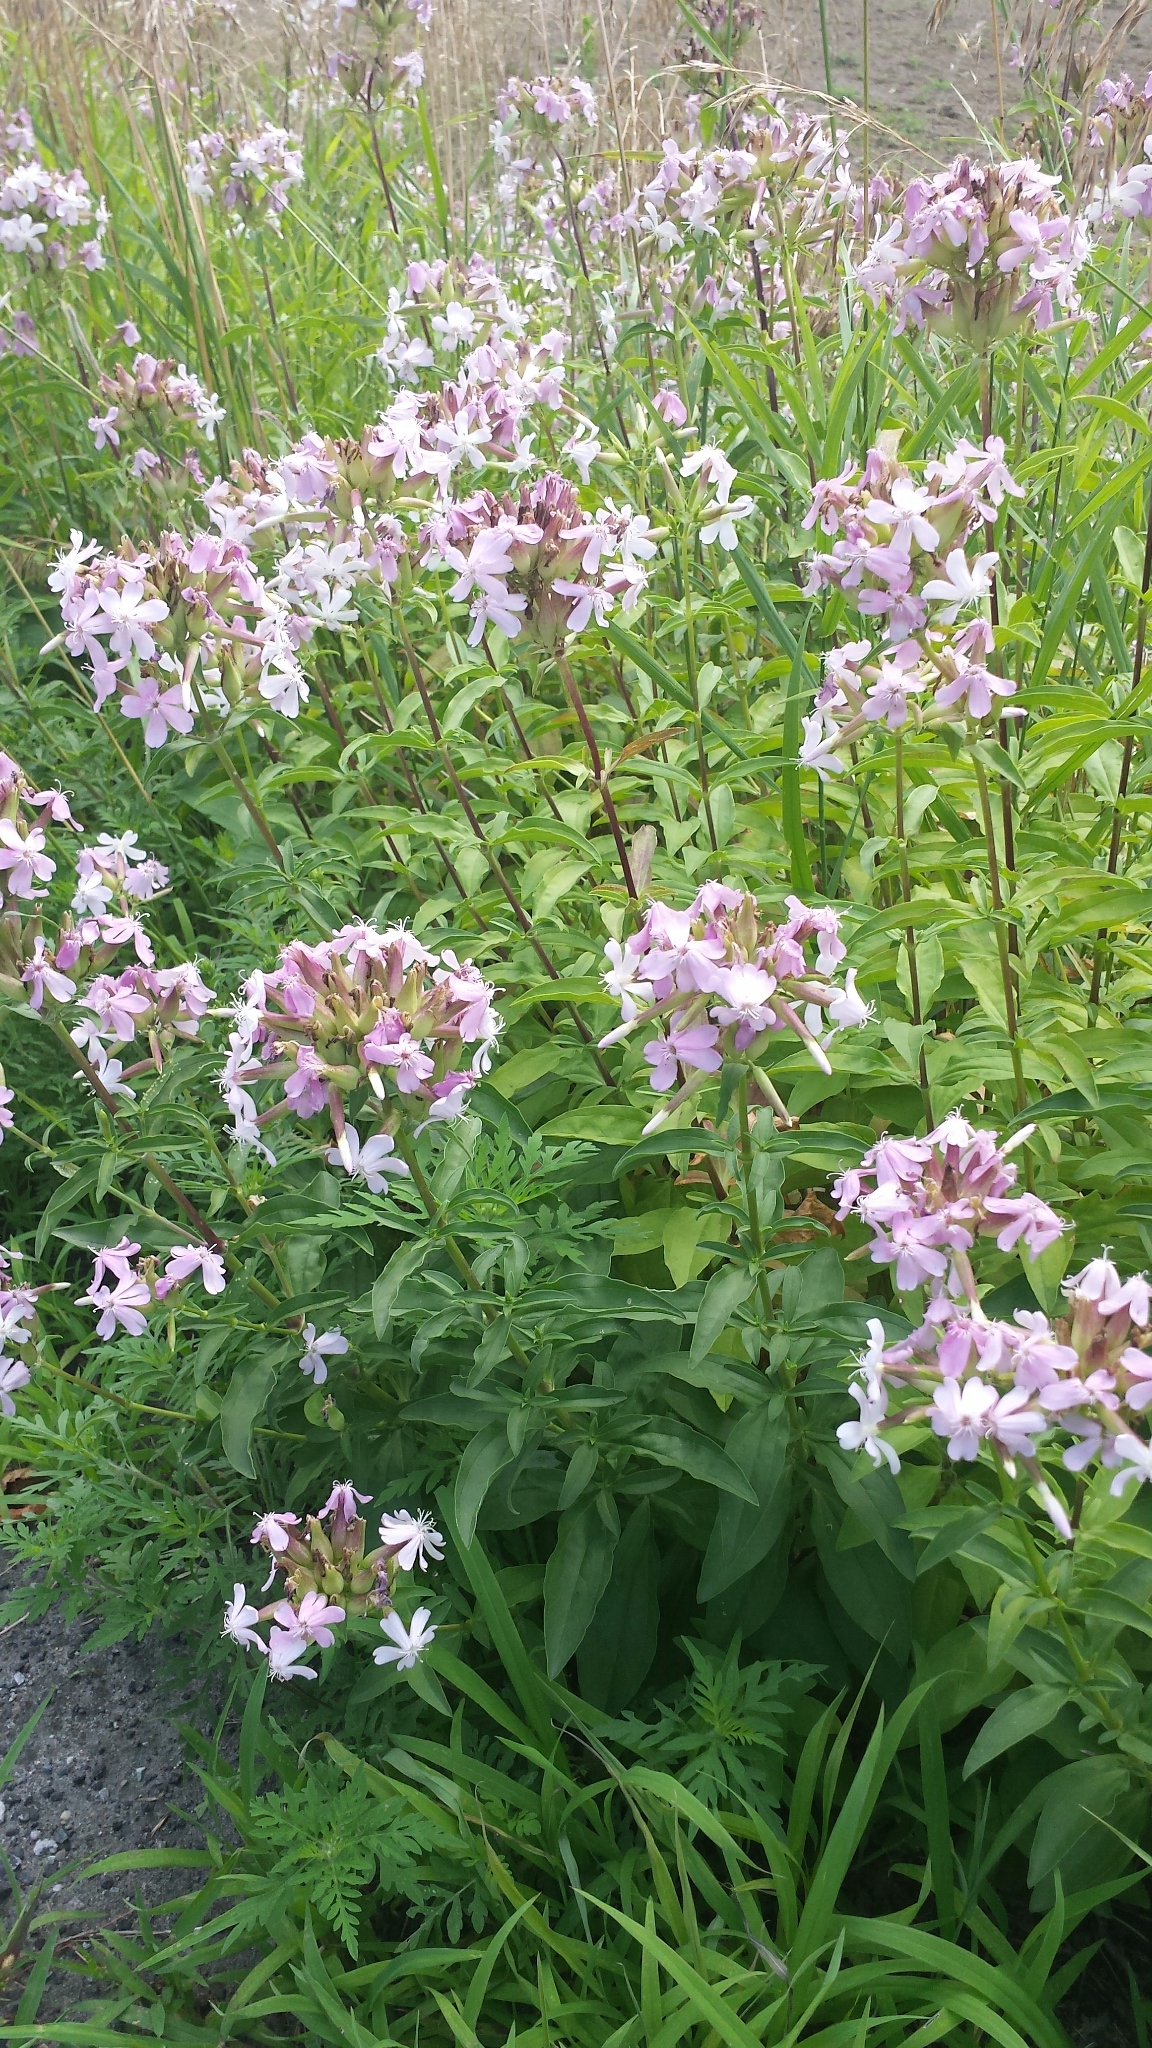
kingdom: Plantae
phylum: Tracheophyta
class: Magnoliopsida
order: Caryophyllales
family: Caryophyllaceae
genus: Saponaria
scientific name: Saponaria officinalis
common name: Soapwort
